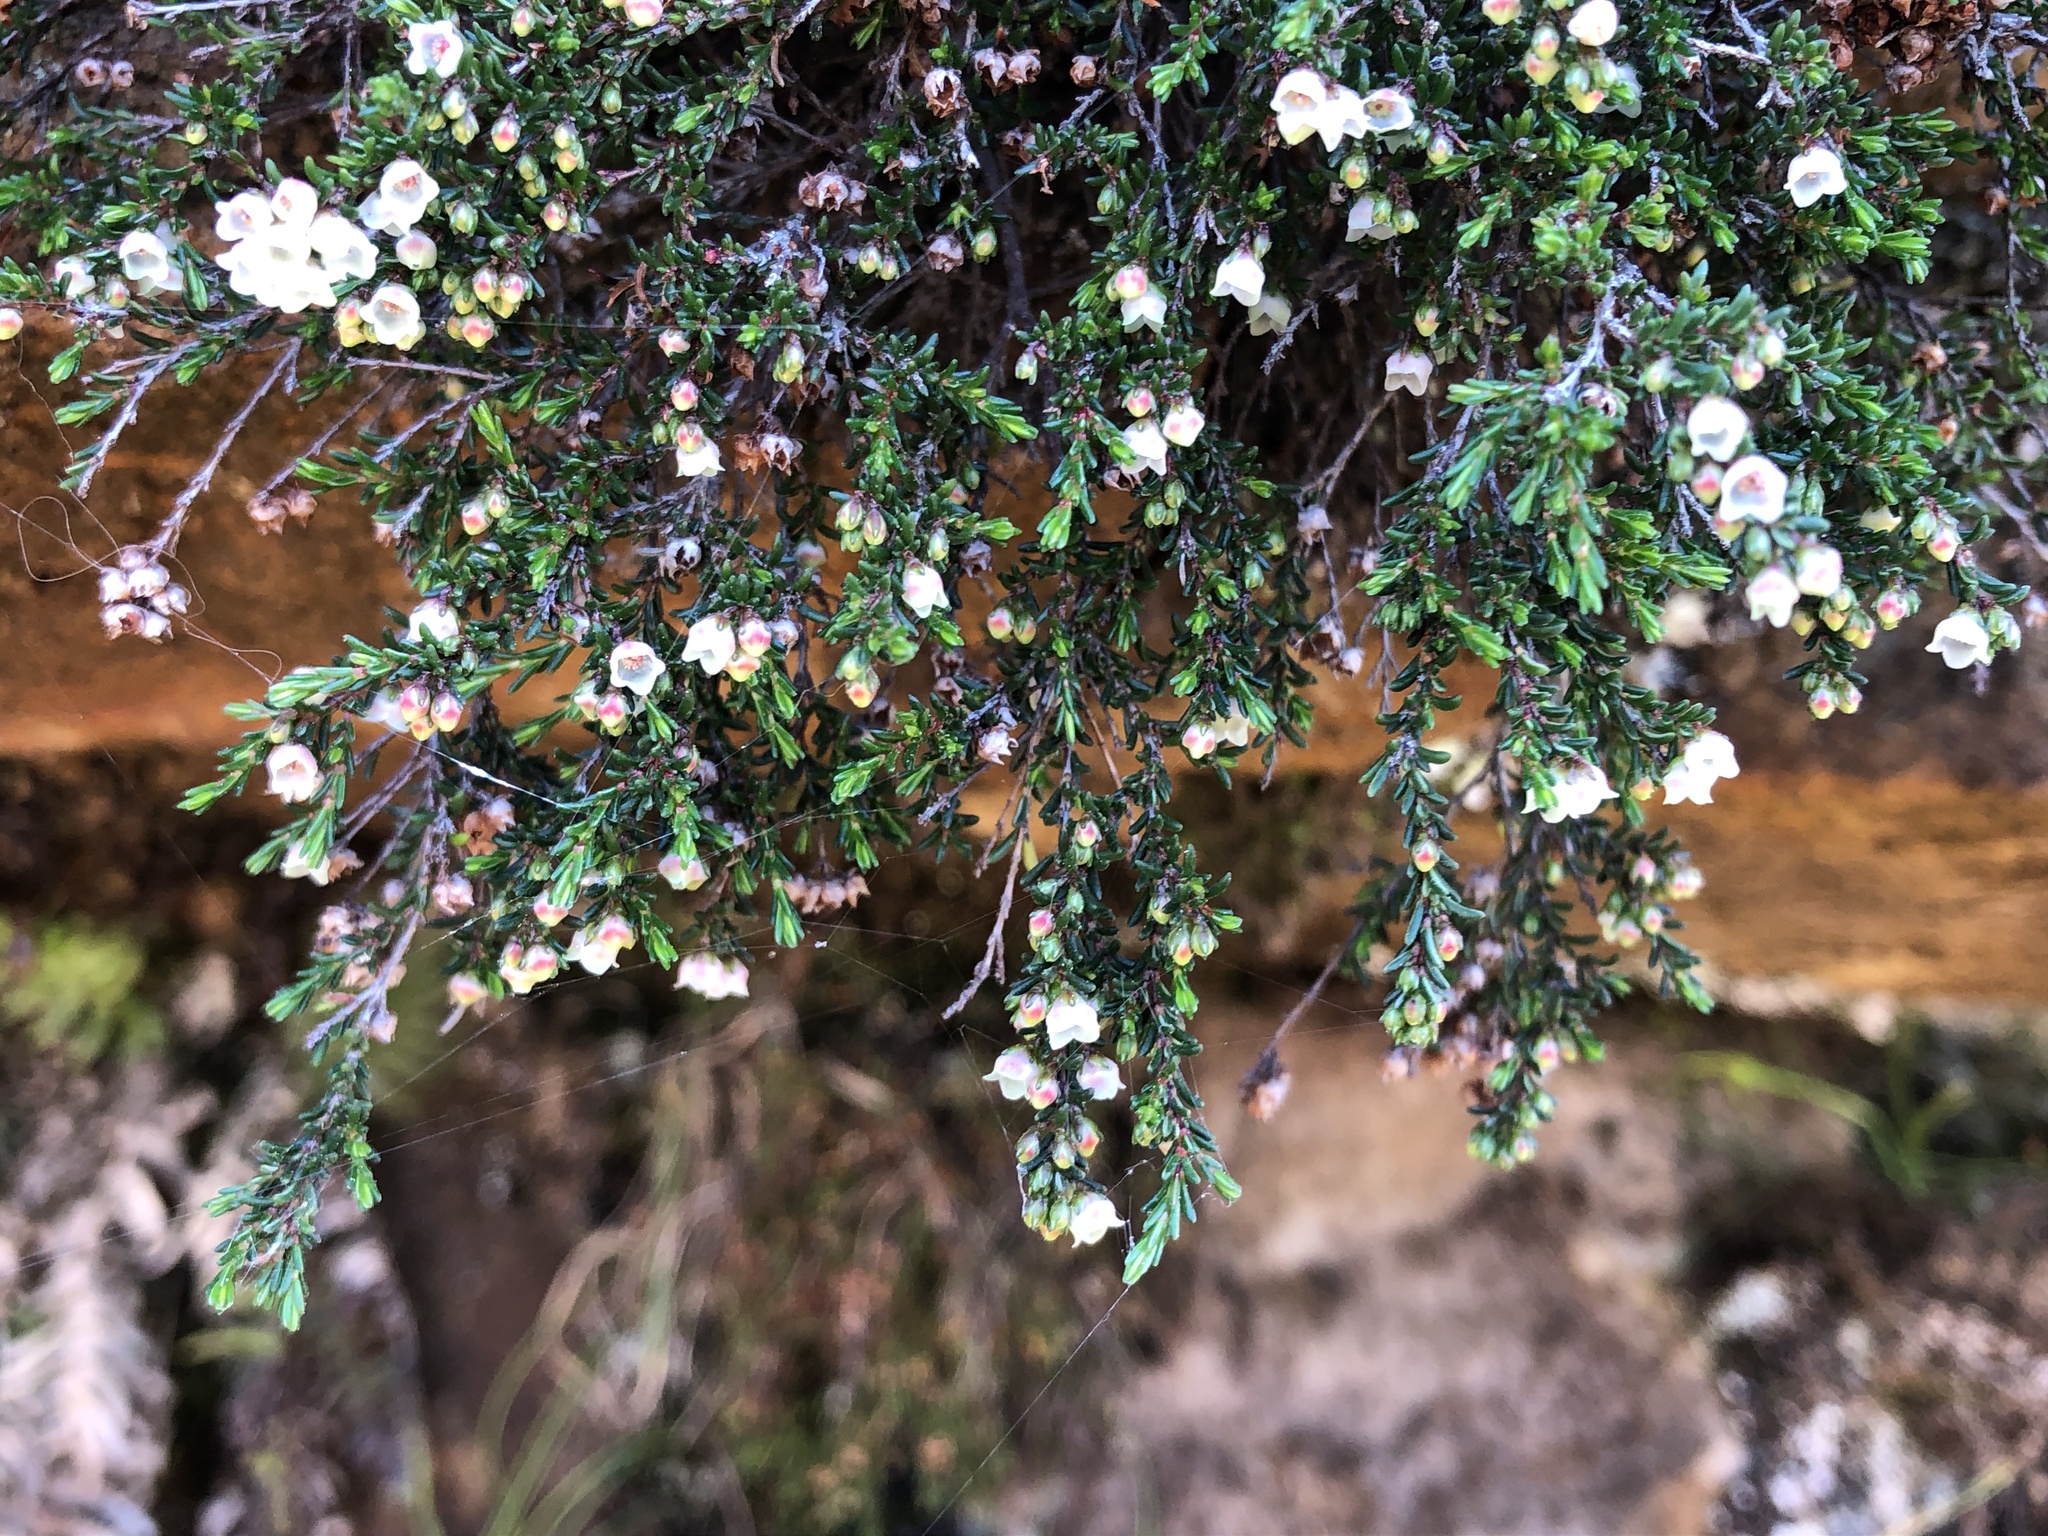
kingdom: Plantae
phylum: Tracheophyta
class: Magnoliopsida
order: Ericales
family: Ericaceae
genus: Erica
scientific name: Erica tenuis
